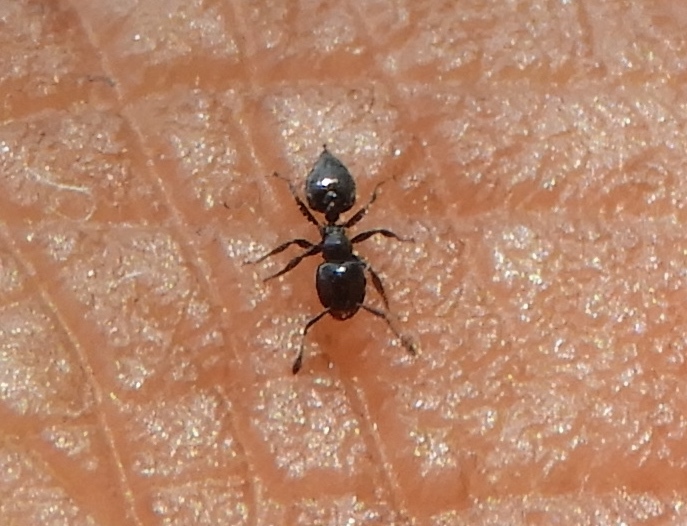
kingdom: Animalia
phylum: Arthropoda
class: Insecta
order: Hymenoptera
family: Formicidae
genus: Crematogaster
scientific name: Crematogaster
